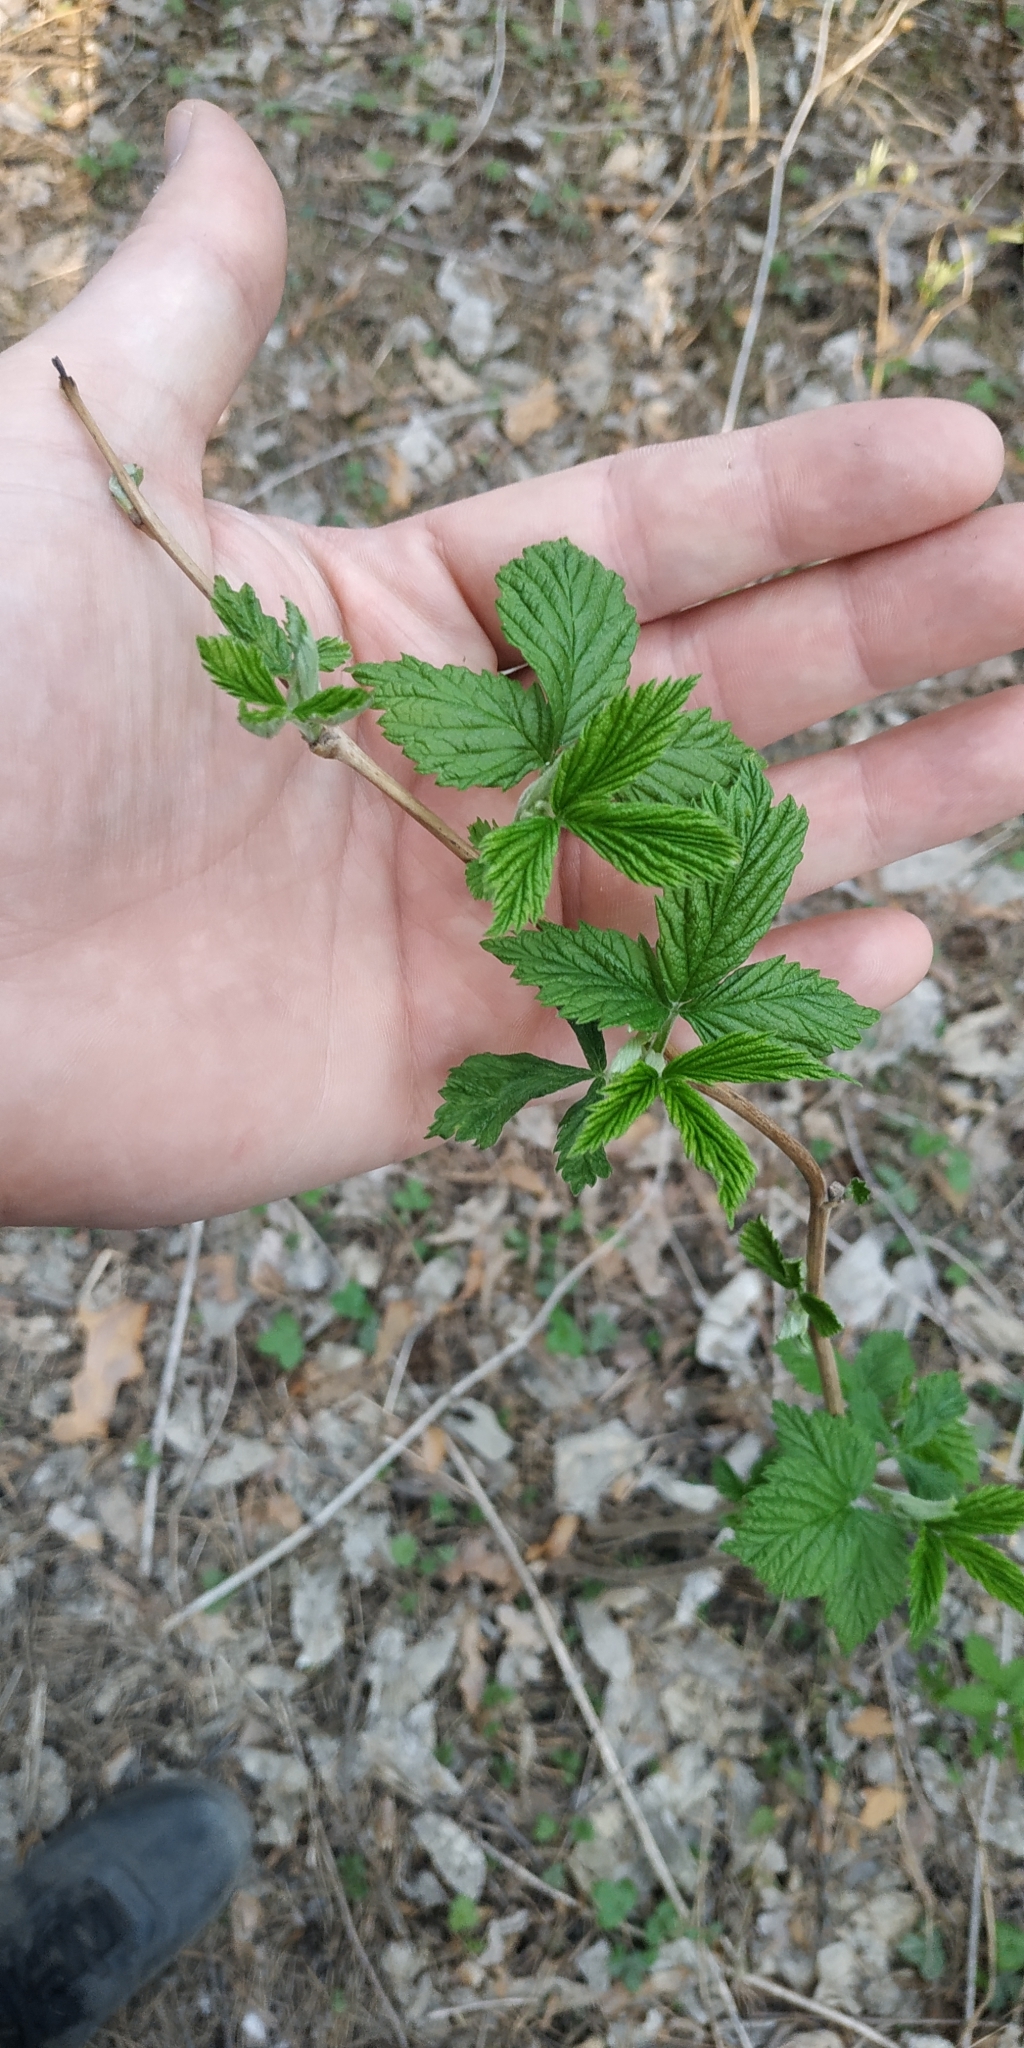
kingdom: Plantae
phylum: Tracheophyta
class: Magnoliopsida
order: Rosales
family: Rosaceae
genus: Rubus
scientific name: Rubus idaeus
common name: Raspberry
